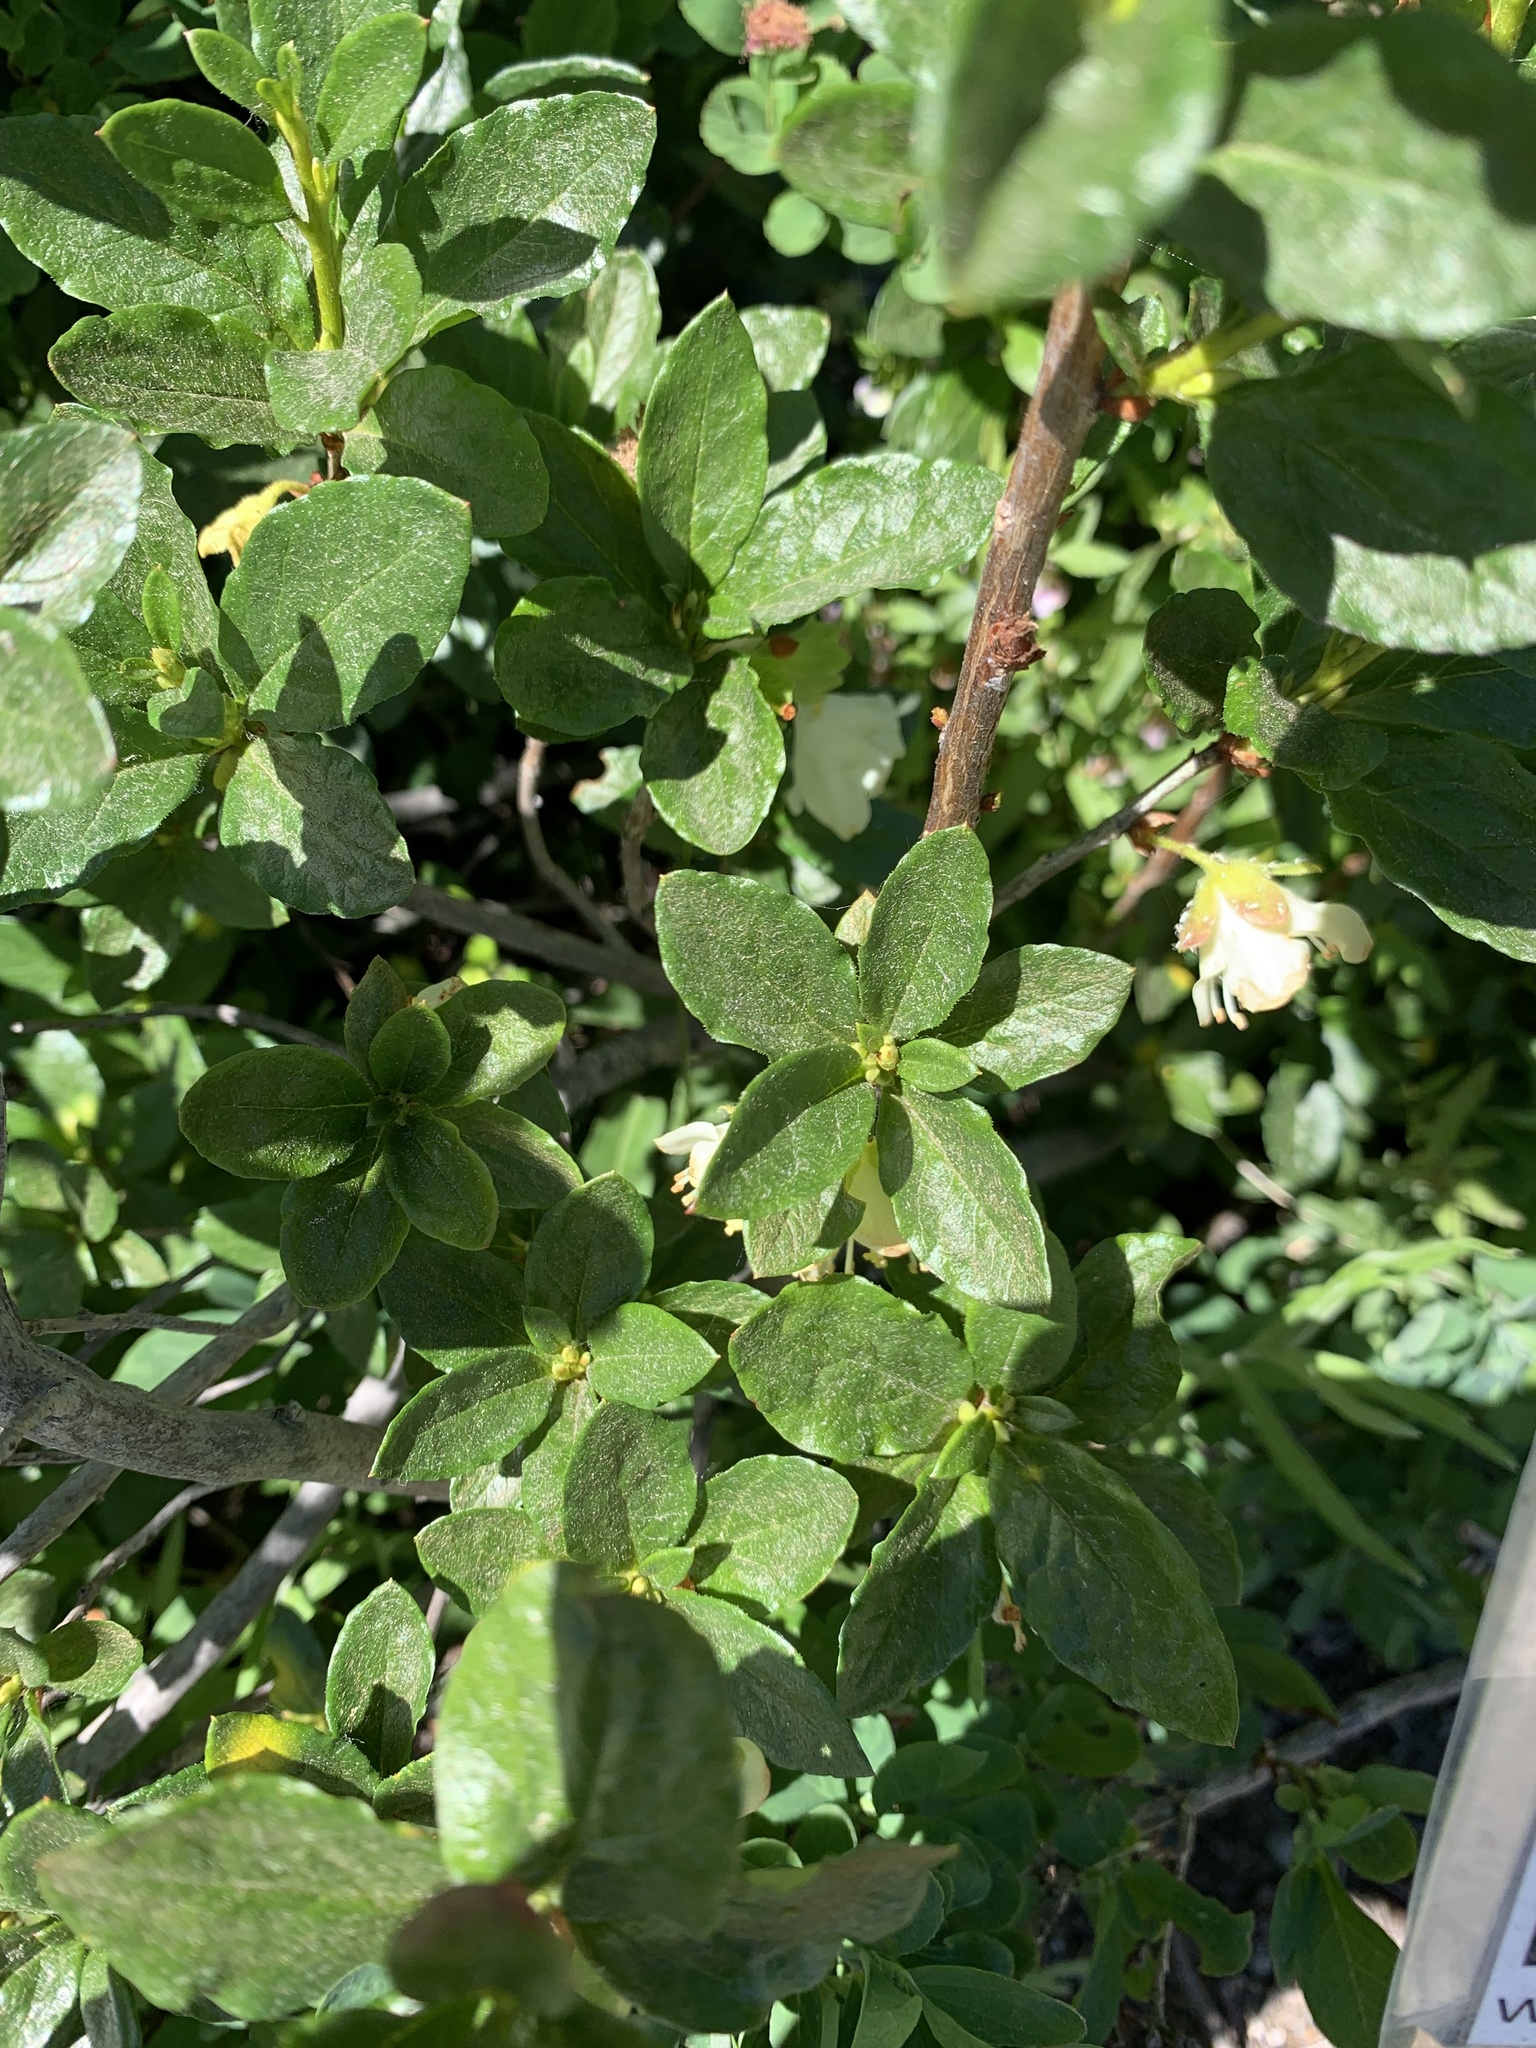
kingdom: Plantae
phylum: Tracheophyta
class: Magnoliopsida
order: Ericales
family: Ericaceae
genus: Rhododendron
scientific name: Rhododendron albiflorum
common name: White rhododendron
